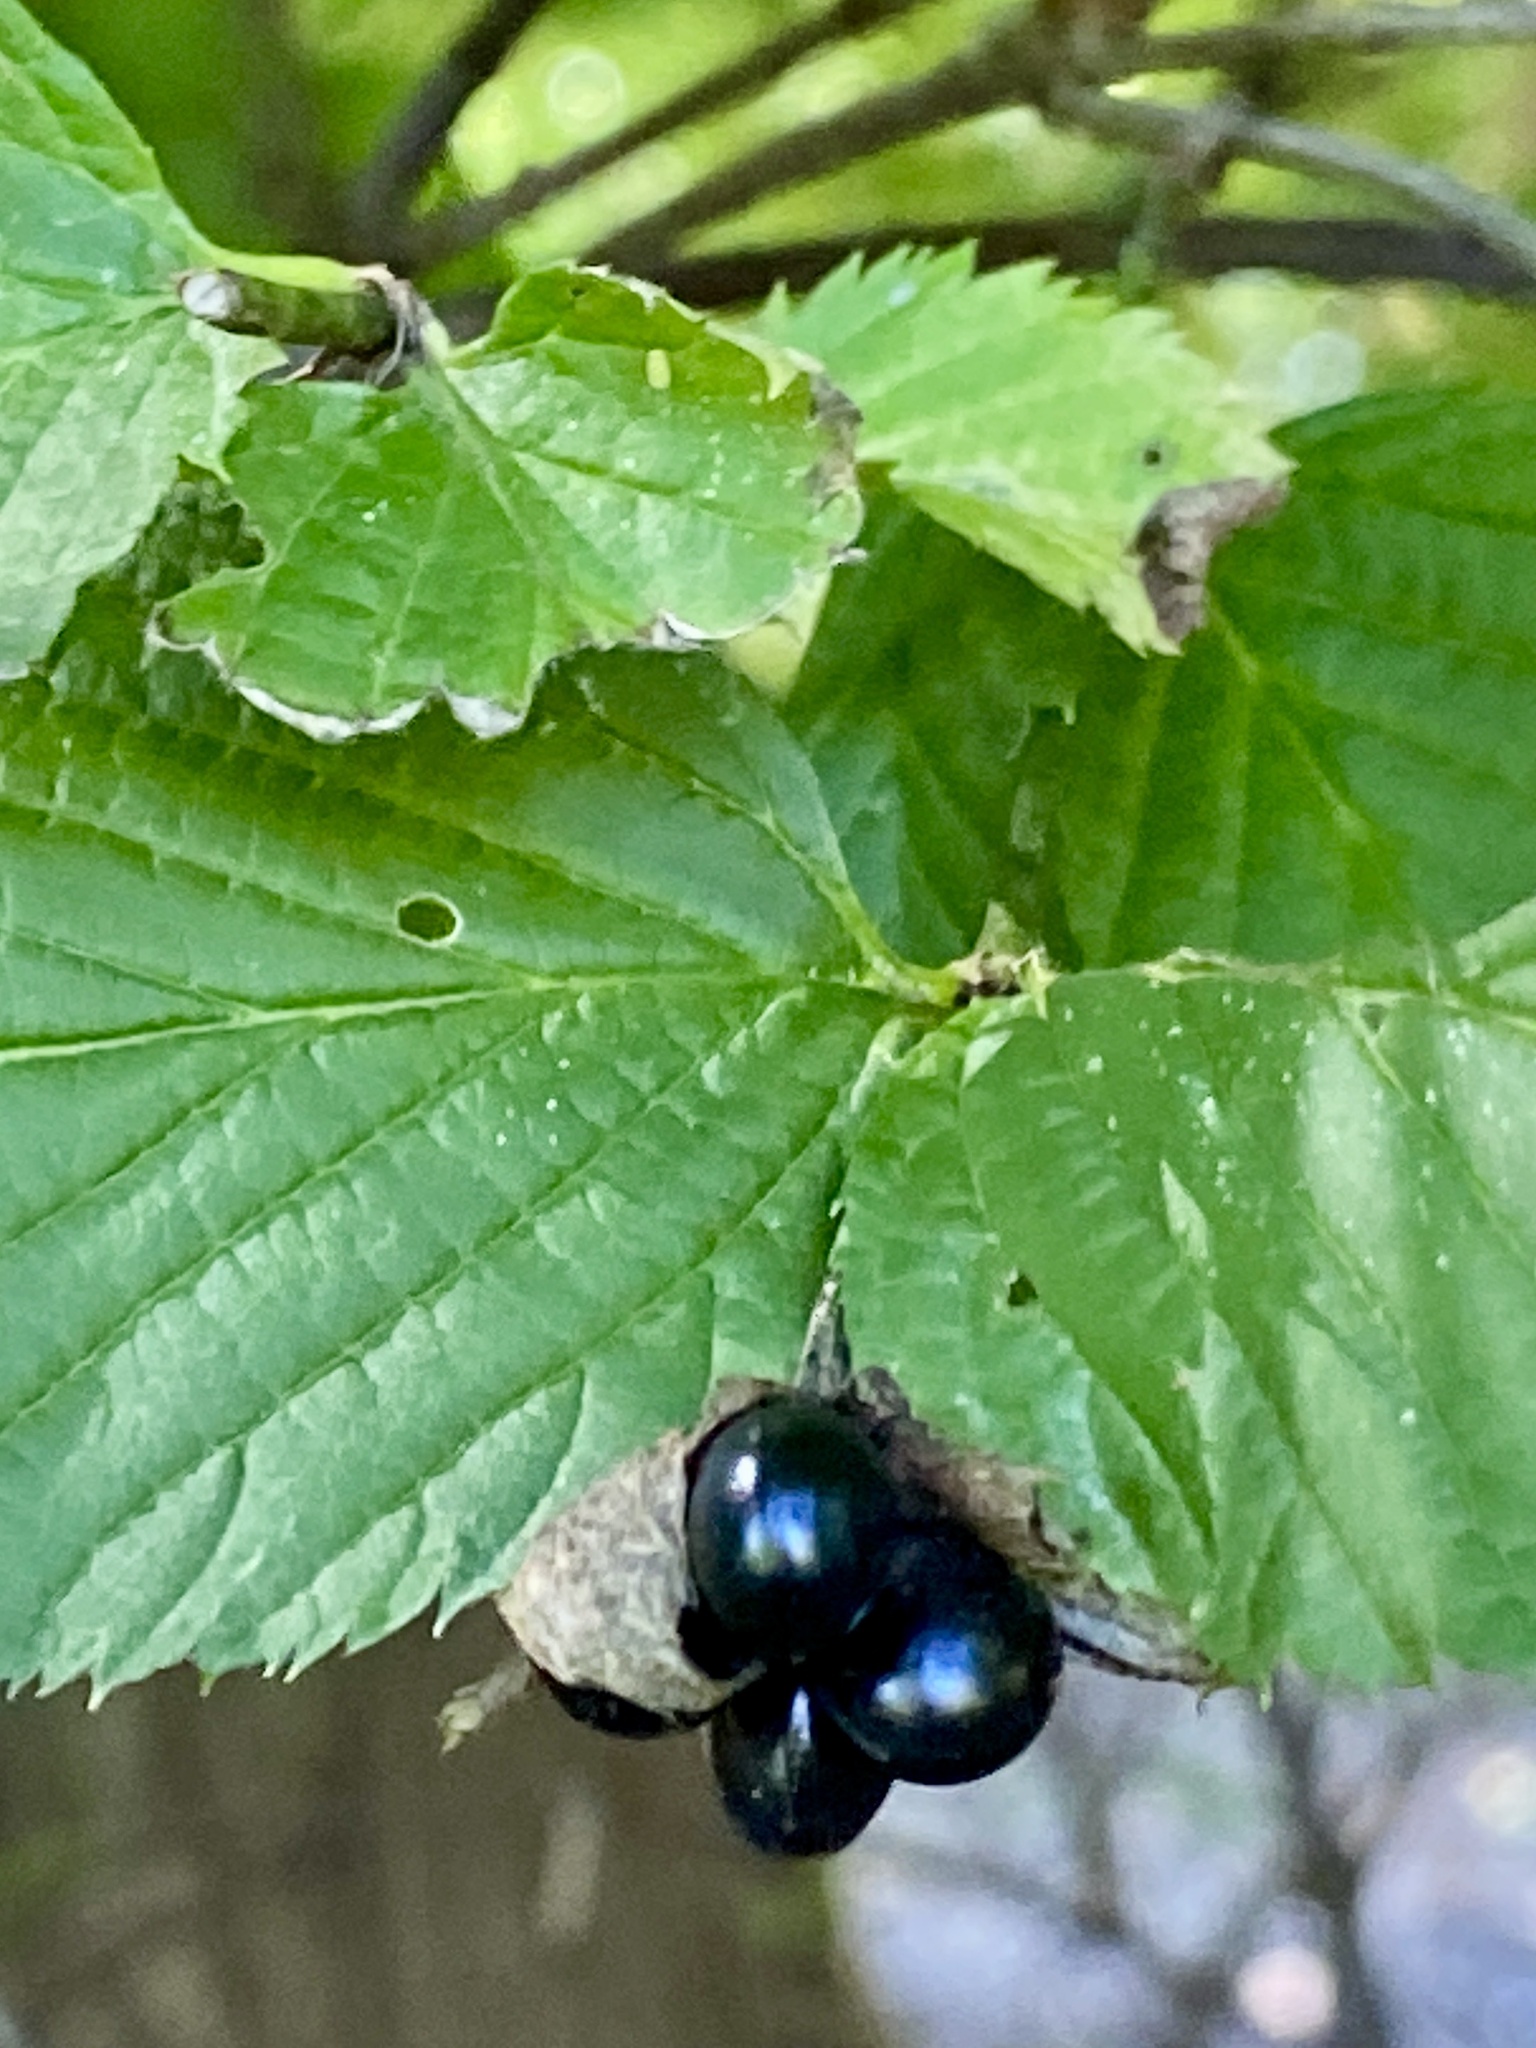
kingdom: Plantae
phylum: Tracheophyta
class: Magnoliopsida
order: Rosales
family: Rosaceae
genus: Rhodotypos
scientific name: Rhodotypos scandens
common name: Jetbead
